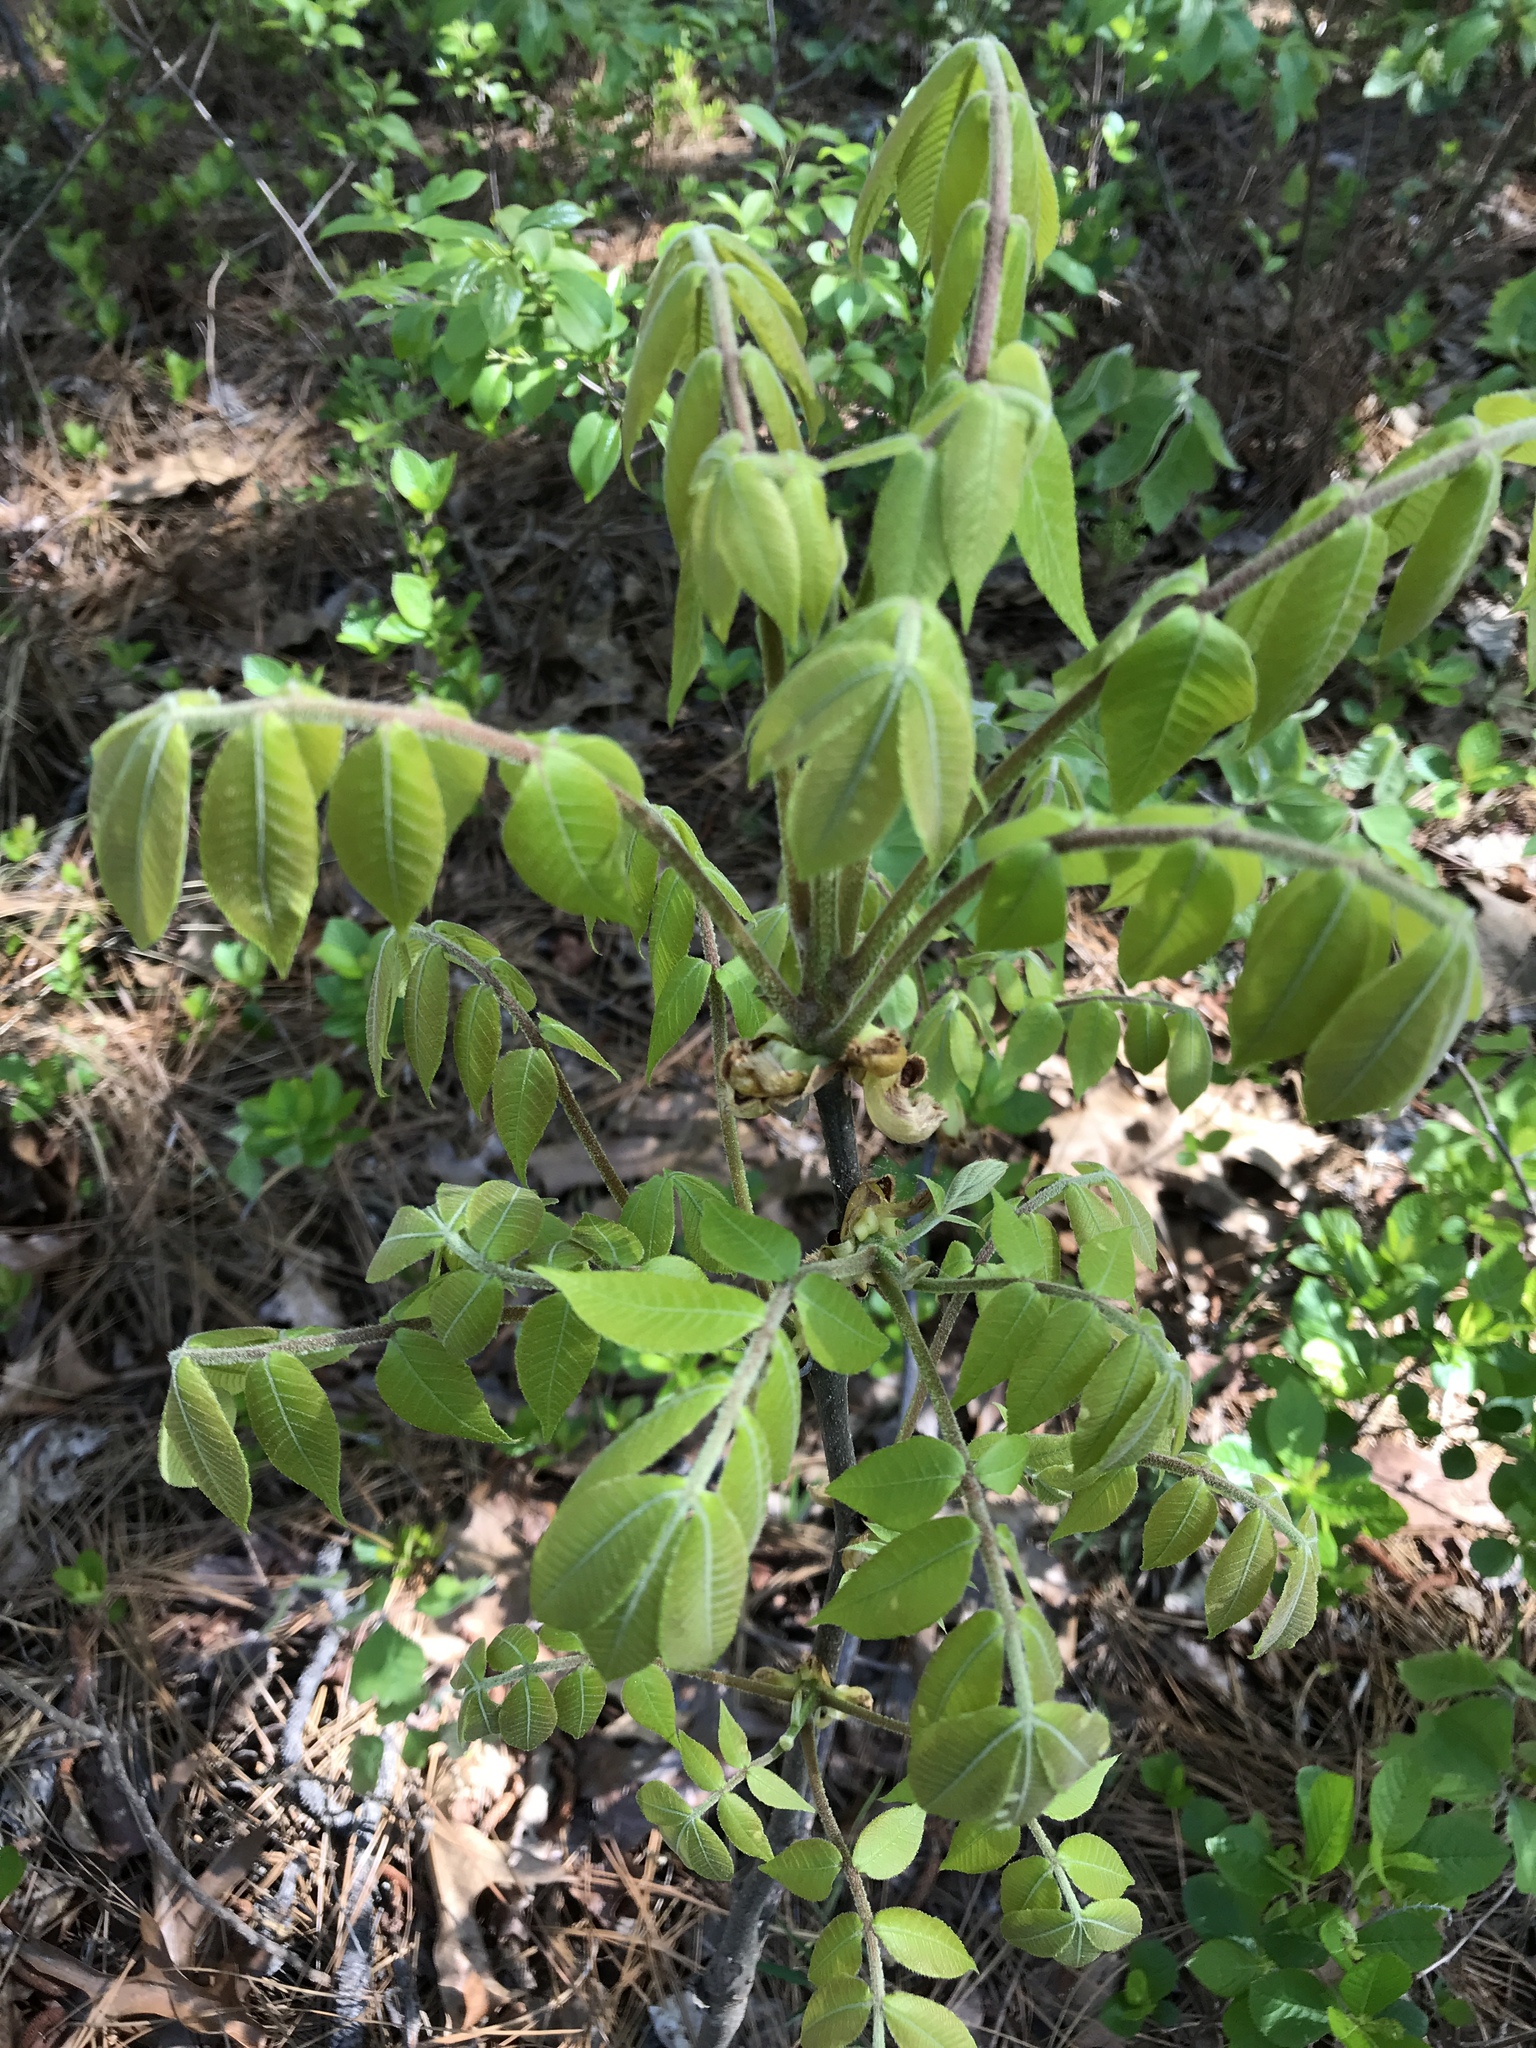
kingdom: Plantae
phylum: Tracheophyta
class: Magnoliopsida
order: Fagales
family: Juglandaceae
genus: Carya
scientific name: Carya pallida
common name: Sand hickory
